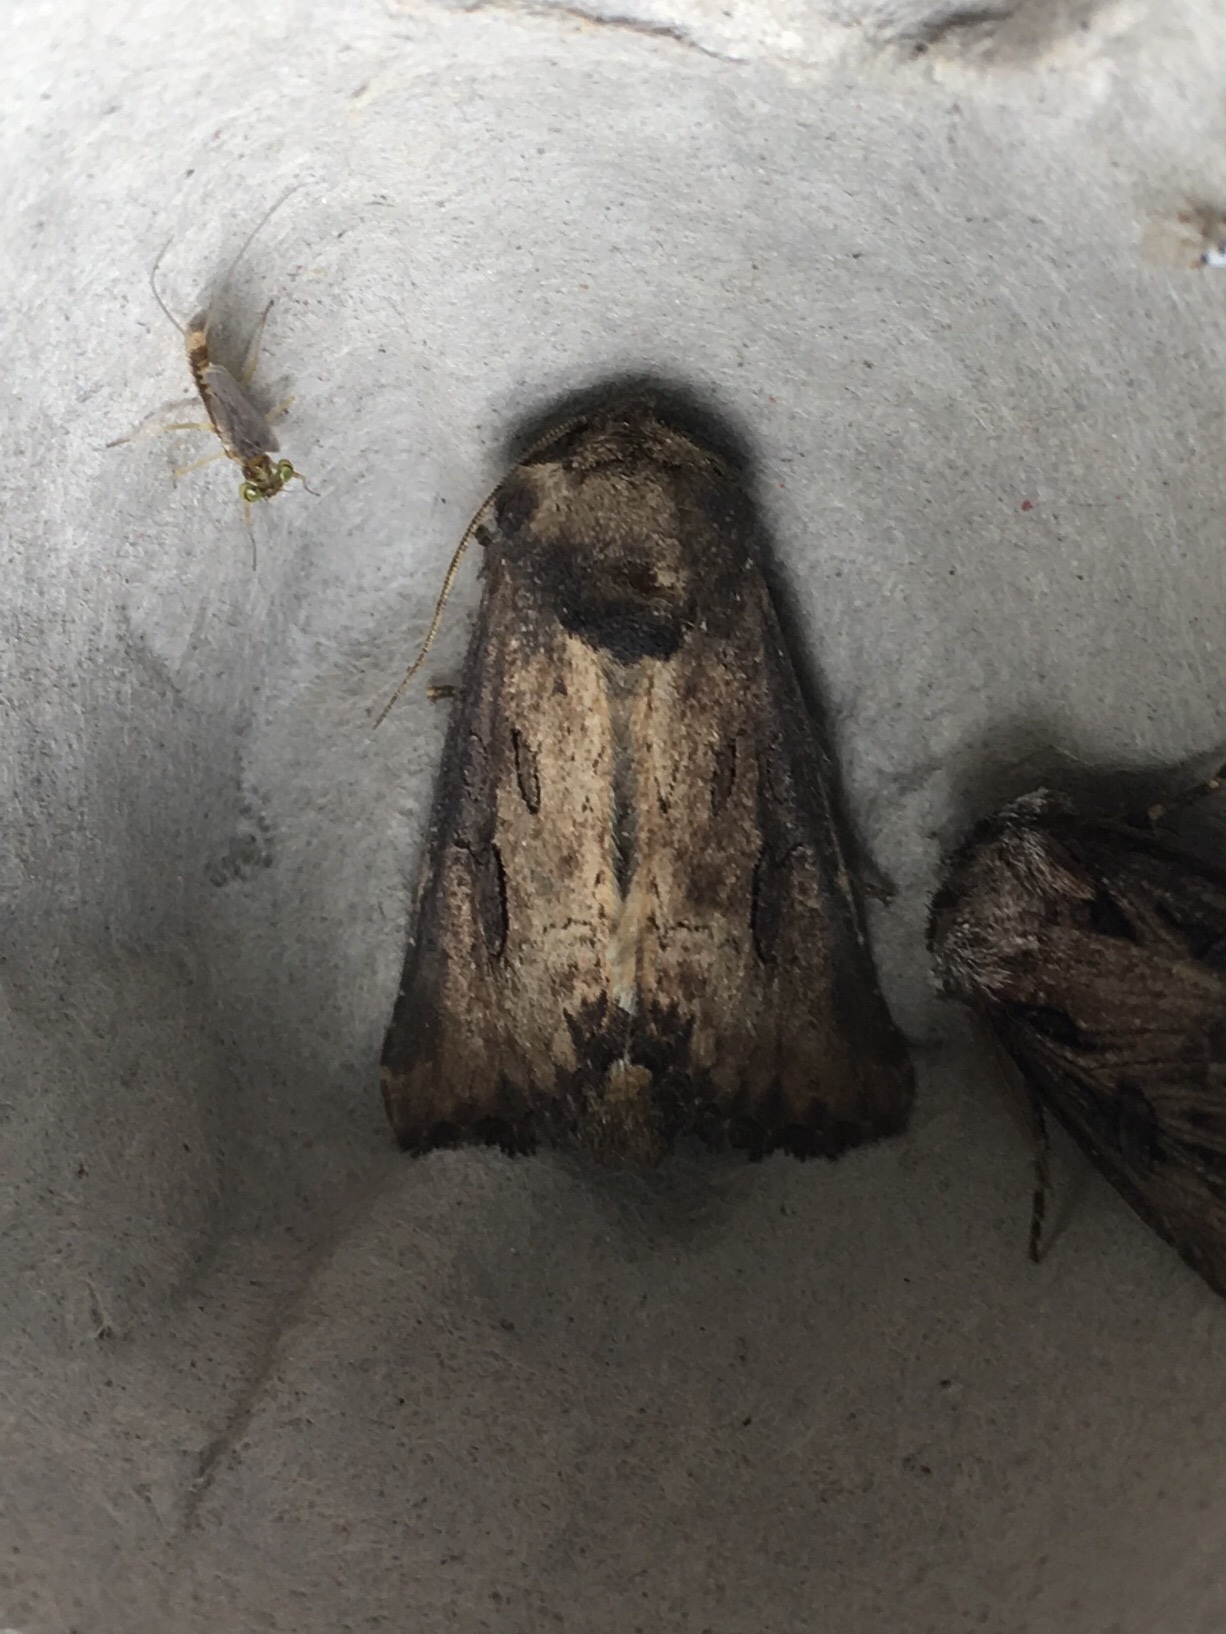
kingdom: Animalia
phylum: Arthropoda
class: Insecta
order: Lepidoptera
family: Noctuidae
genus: Macronoctua
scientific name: Macronoctua onusta
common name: Iris borer
